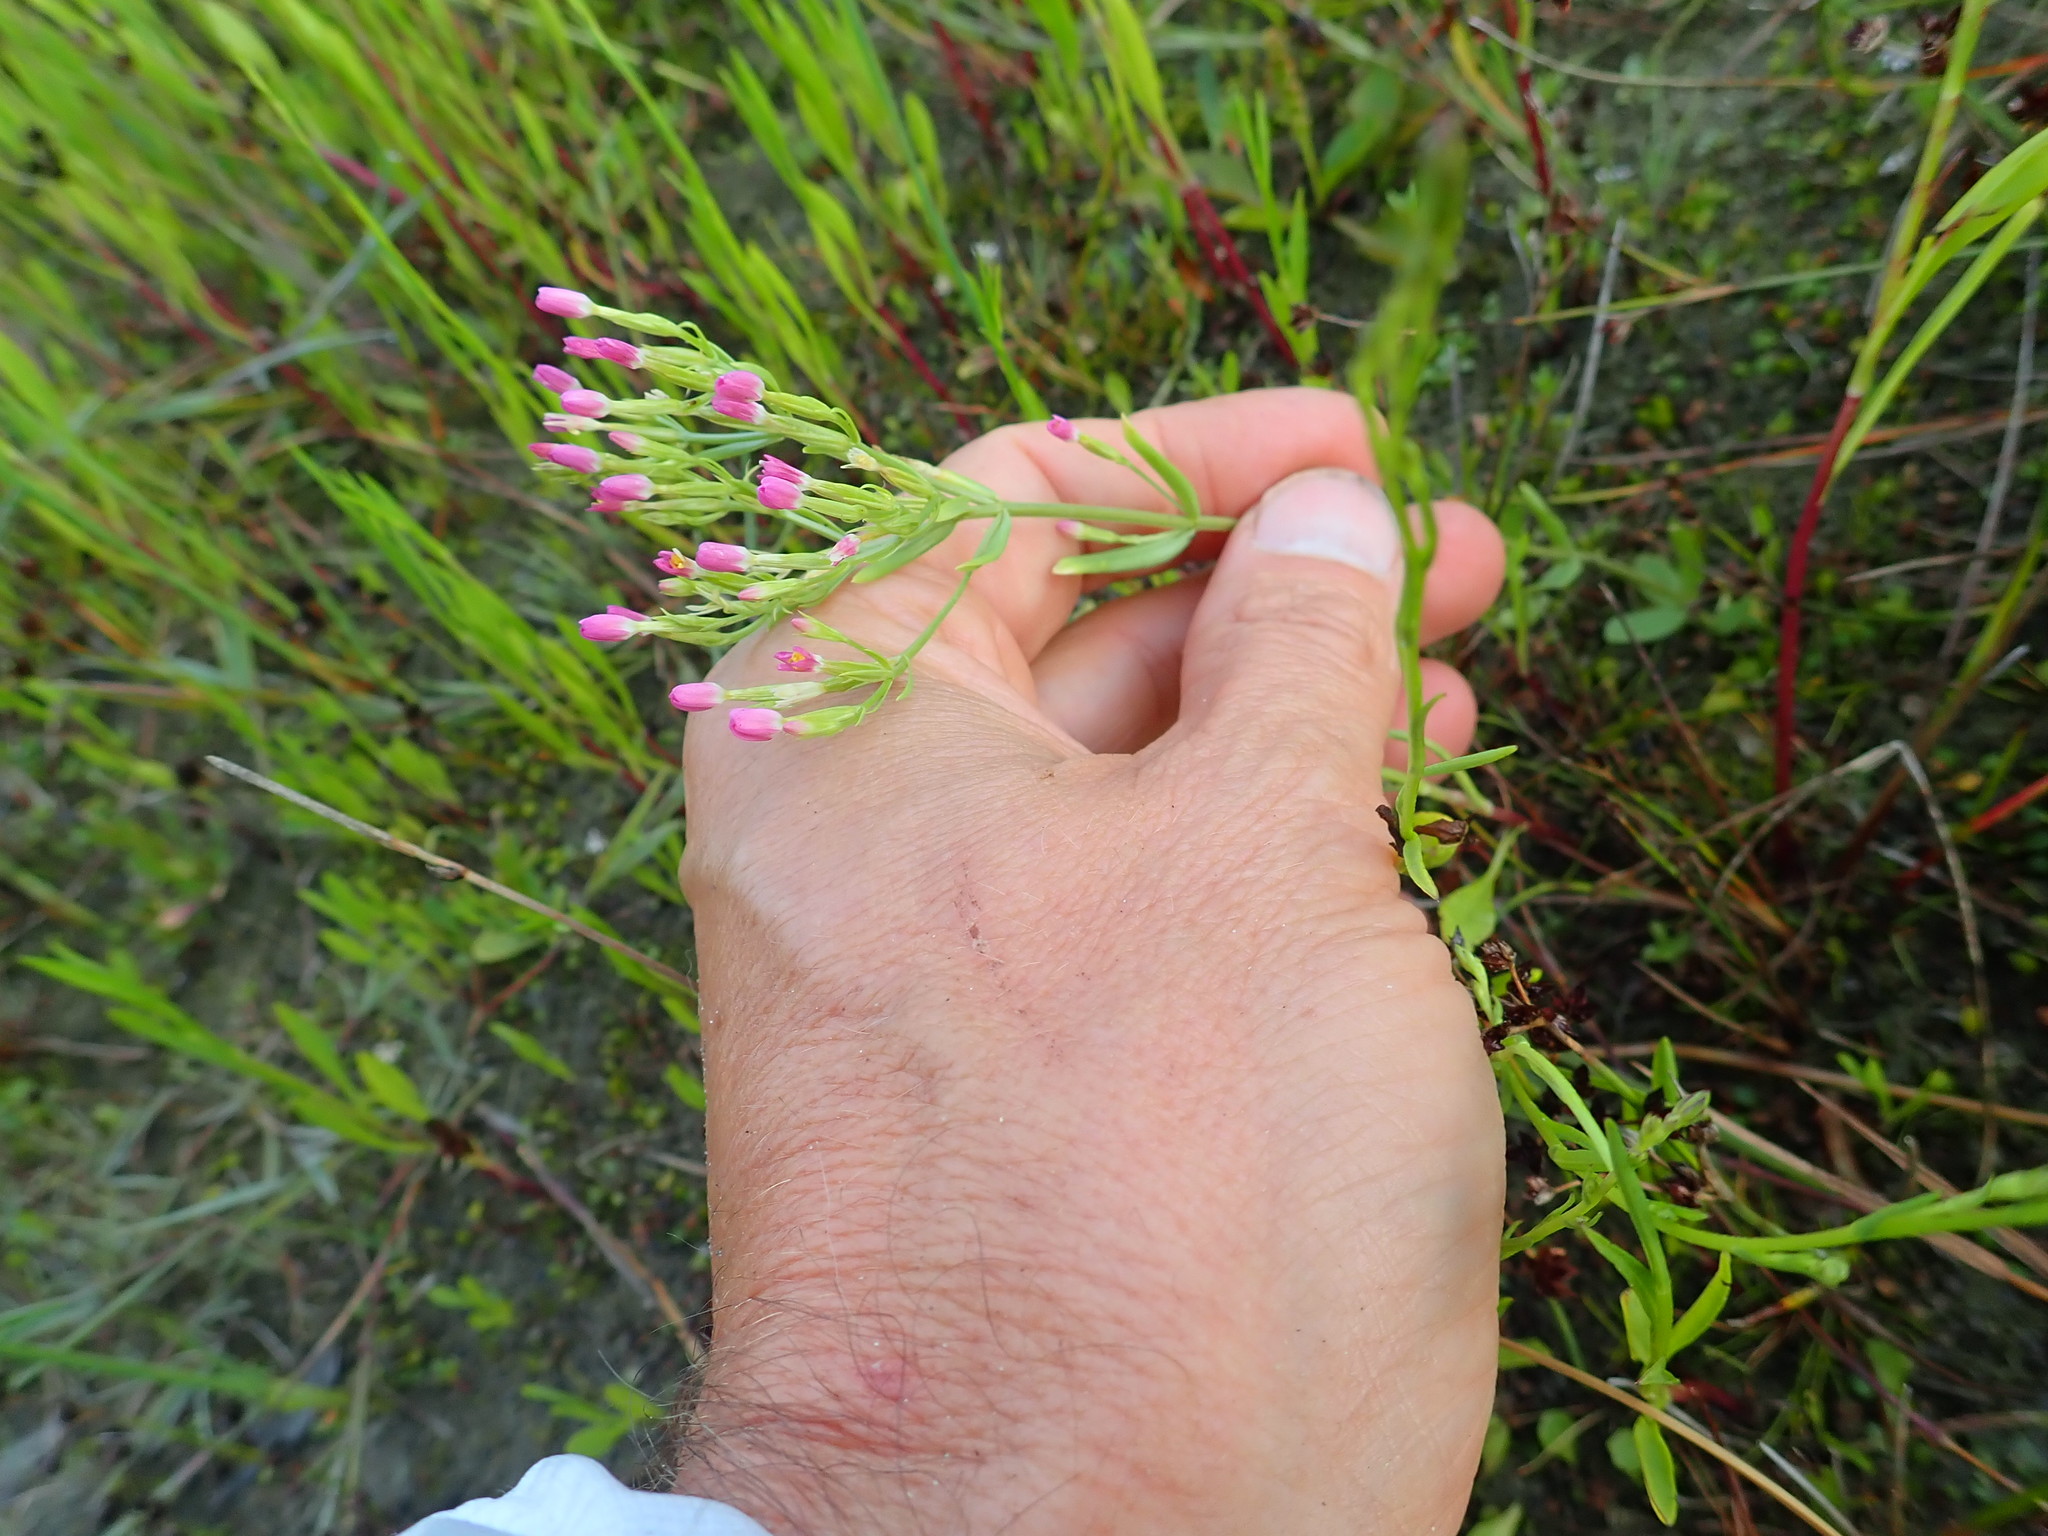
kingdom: Plantae
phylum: Tracheophyta
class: Magnoliopsida
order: Gentianales
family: Gentianaceae
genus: Centaurium
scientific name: Centaurium erythraea
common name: Common centaury
